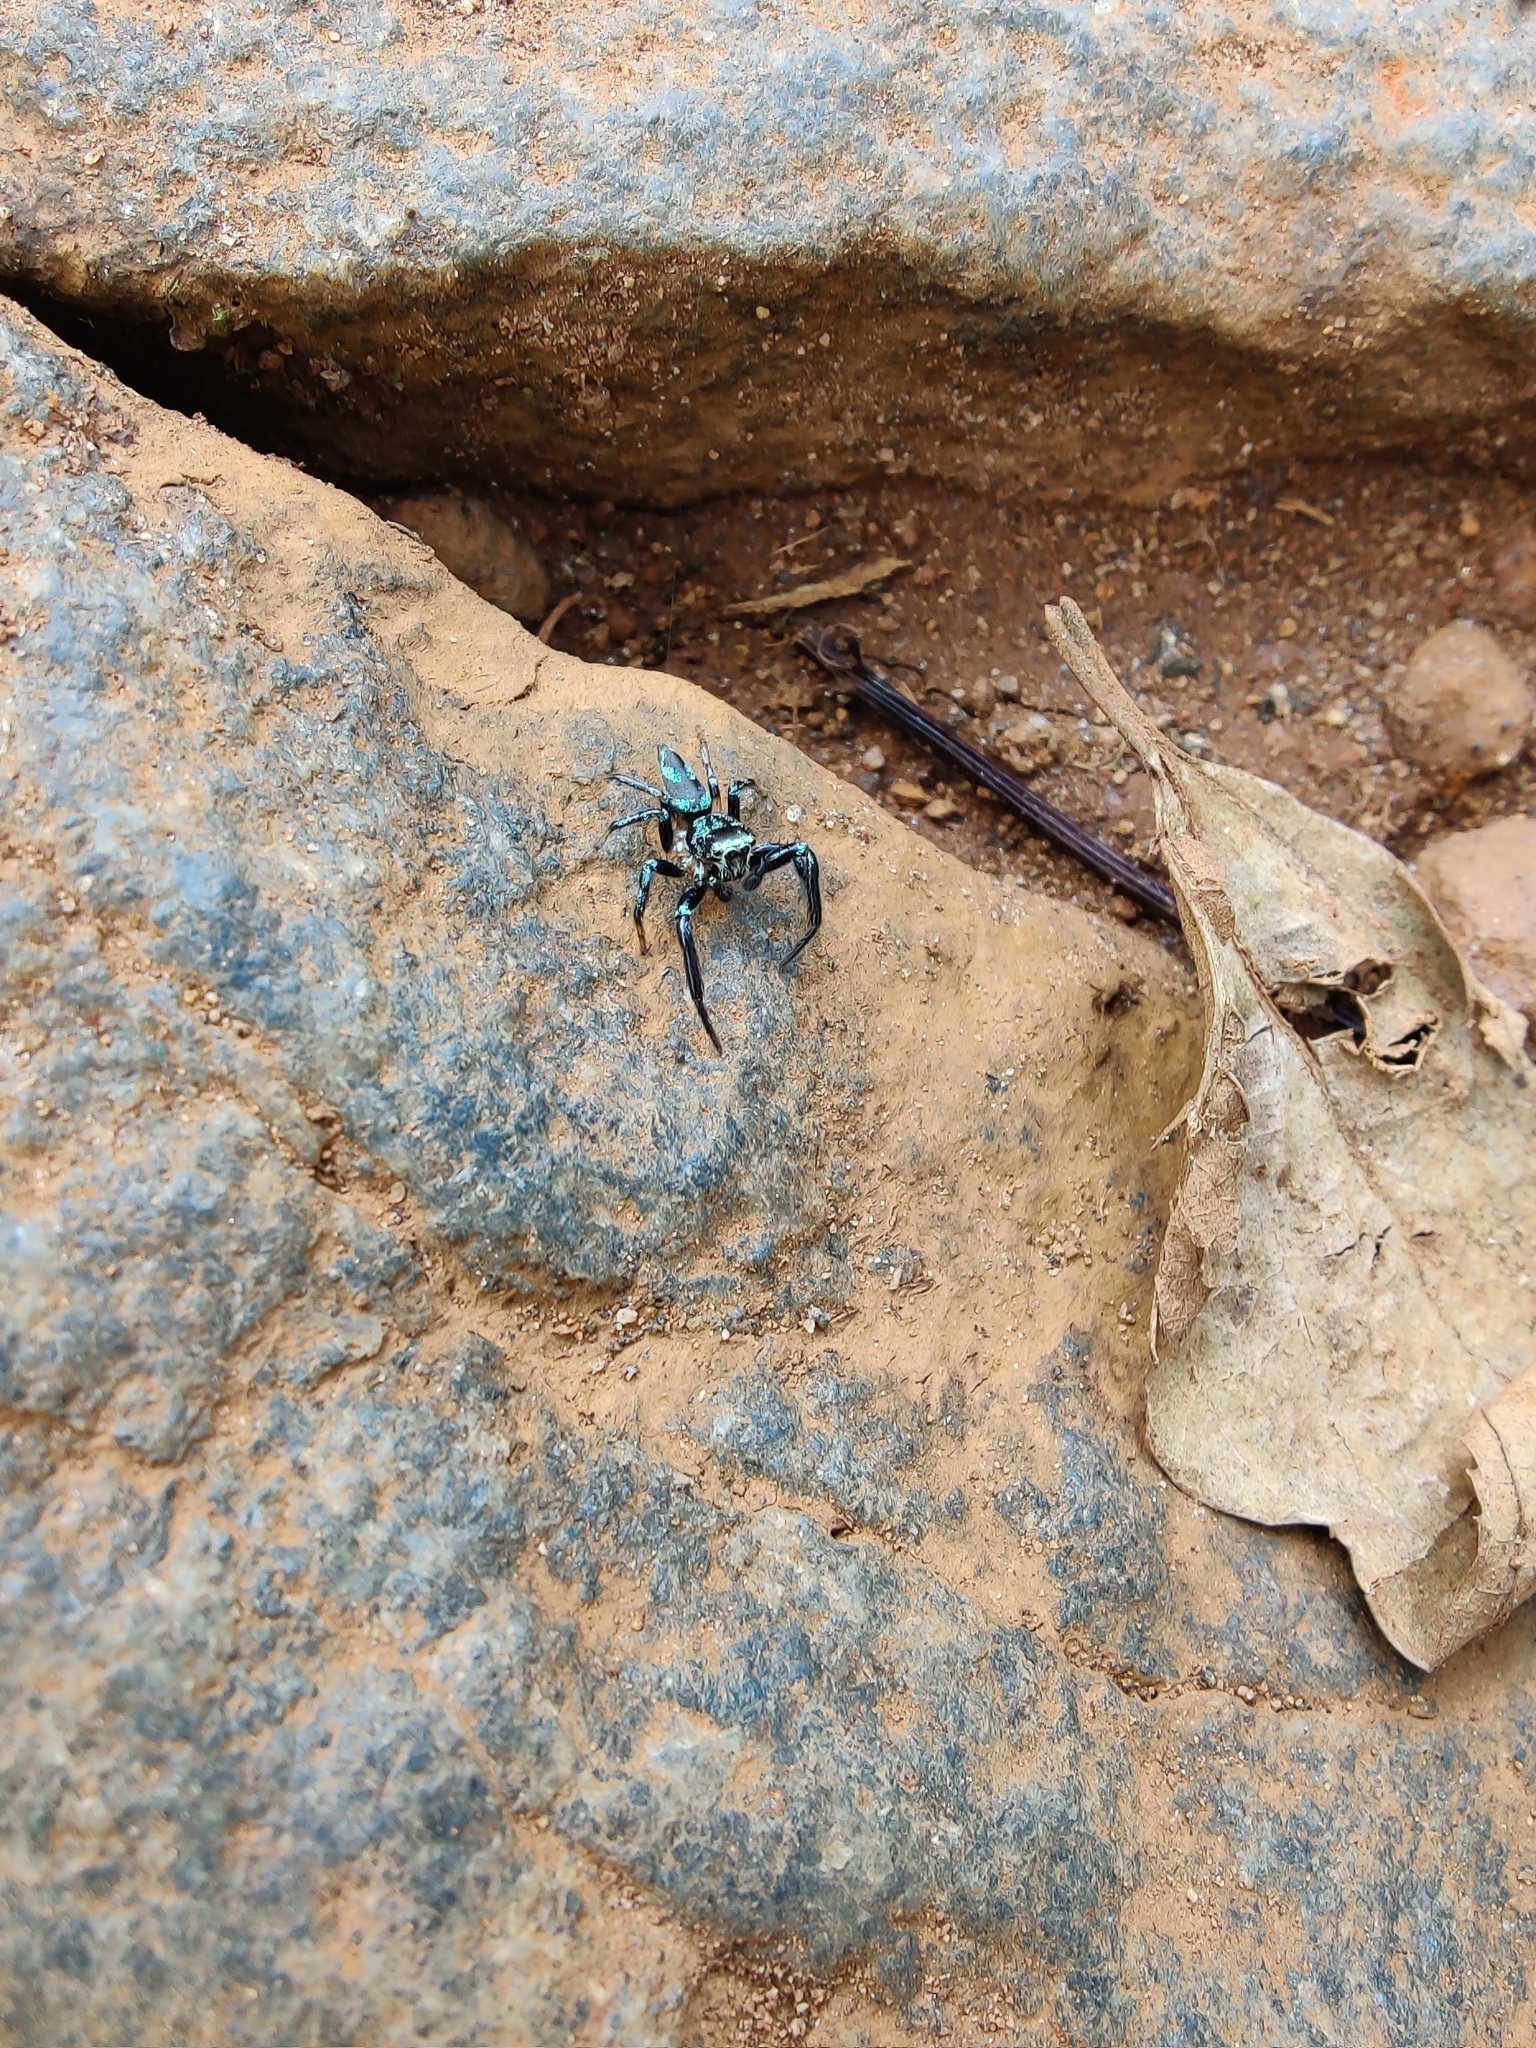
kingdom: Animalia
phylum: Arthropoda
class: Arachnida
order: Araneae
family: Salticidae
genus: Thiania
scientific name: Thiania bhamoensis
